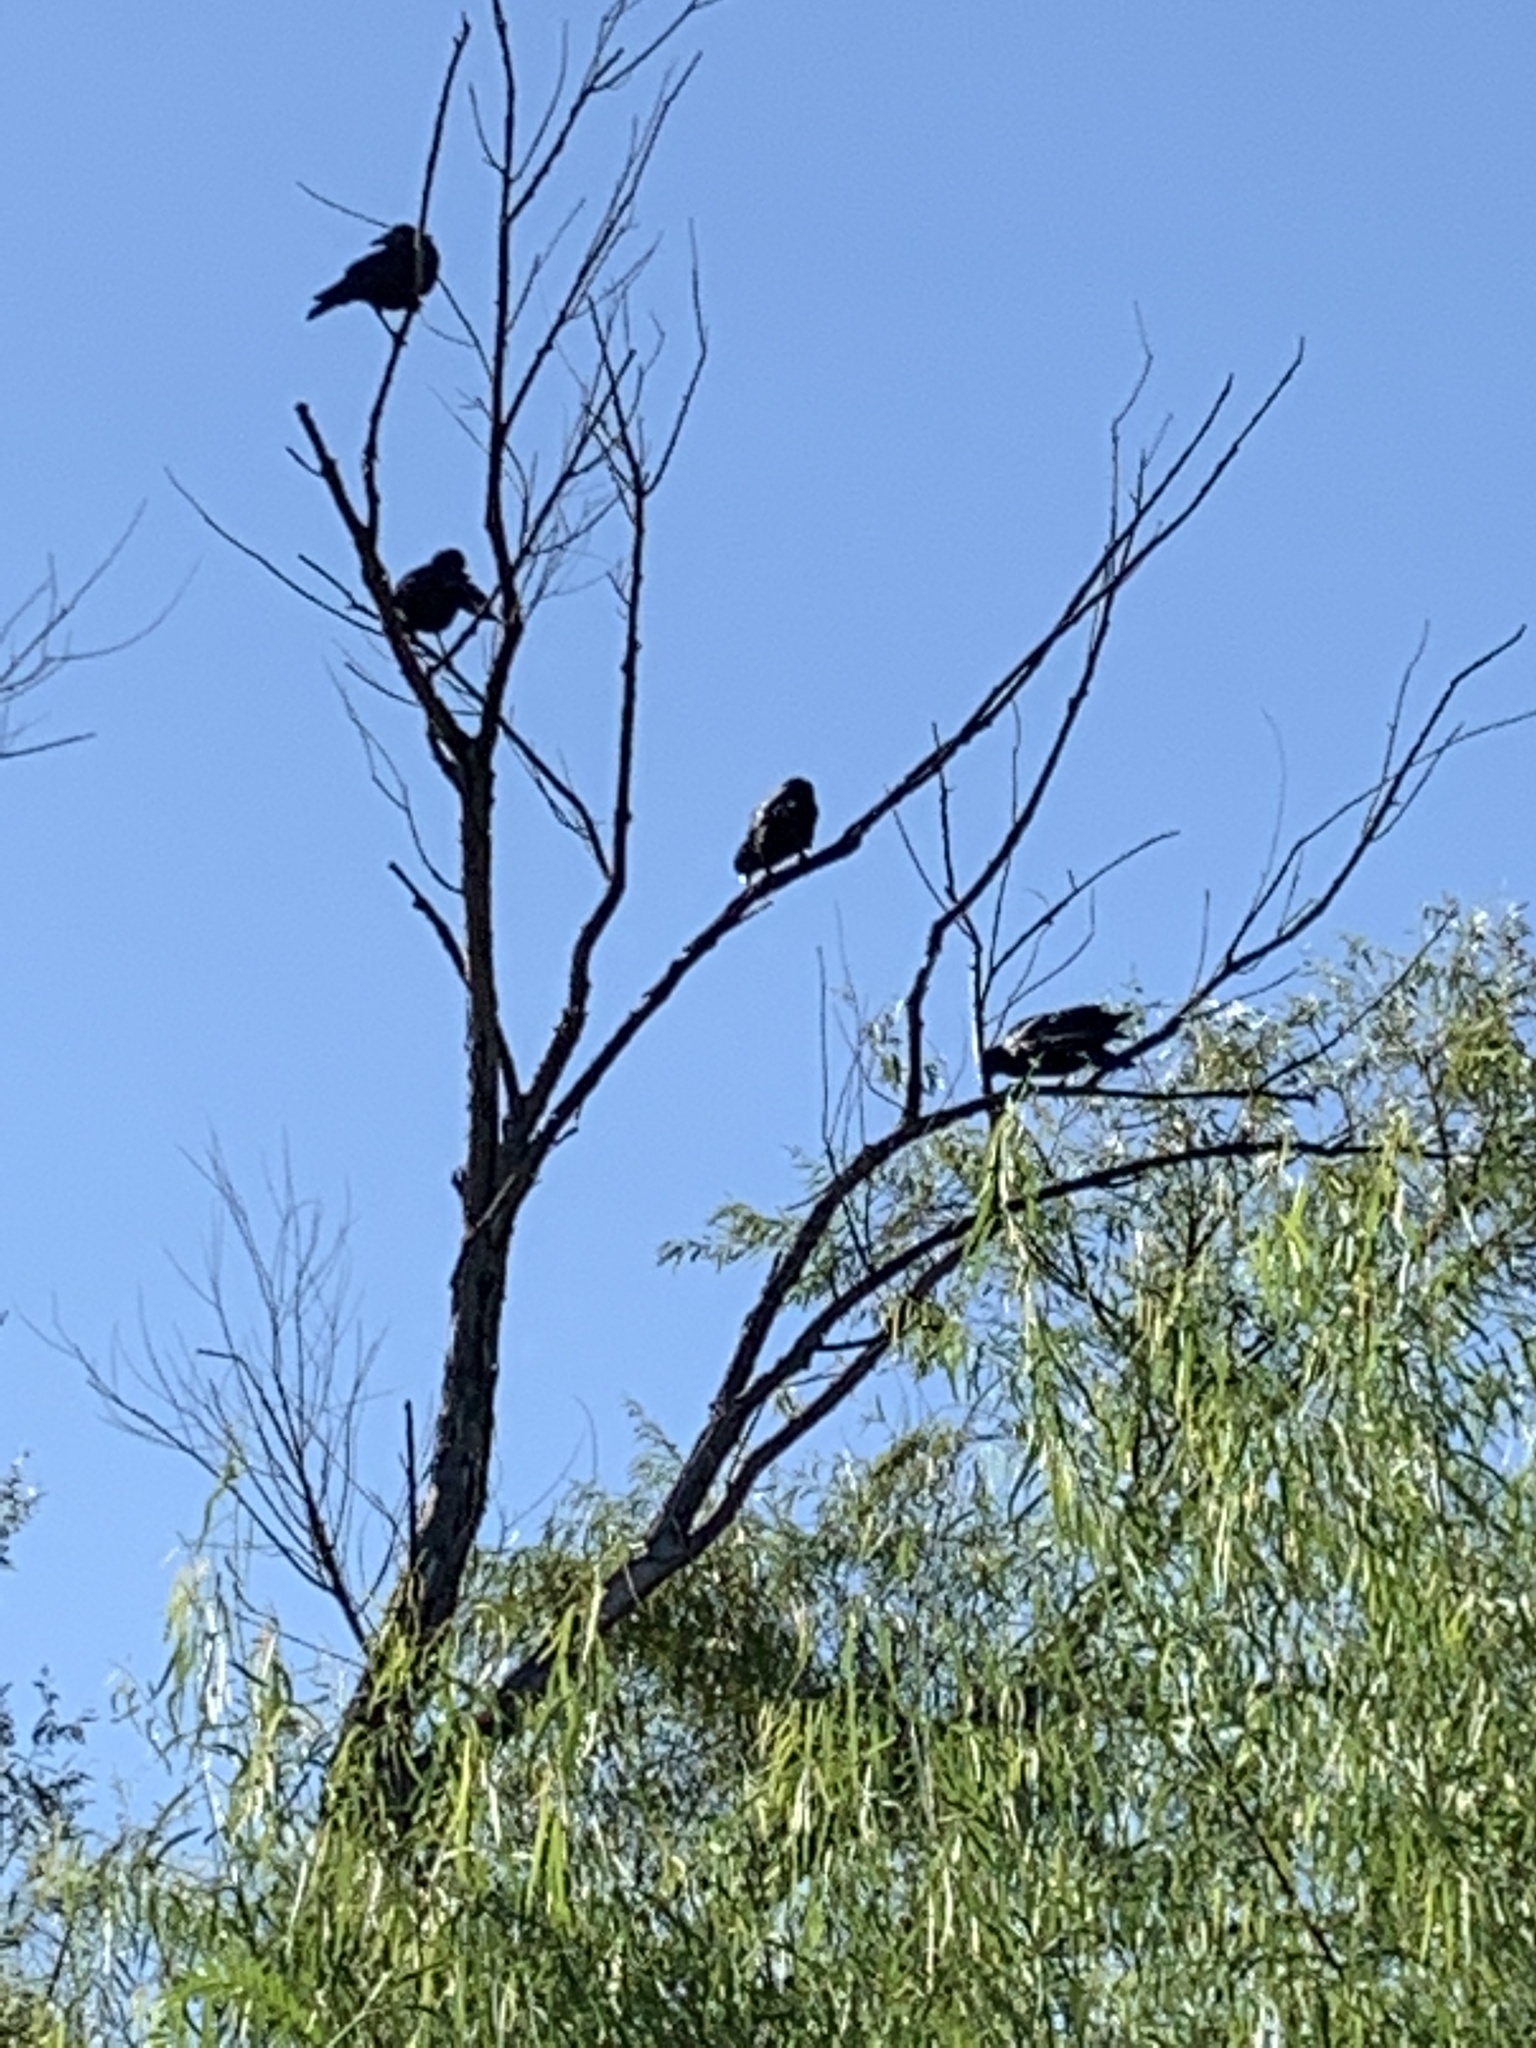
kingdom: Animalia
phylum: Chordata
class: Aves
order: Passeriformes
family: Corvidae
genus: Corvus
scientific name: Corvus brachyrhynchos
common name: American crow
